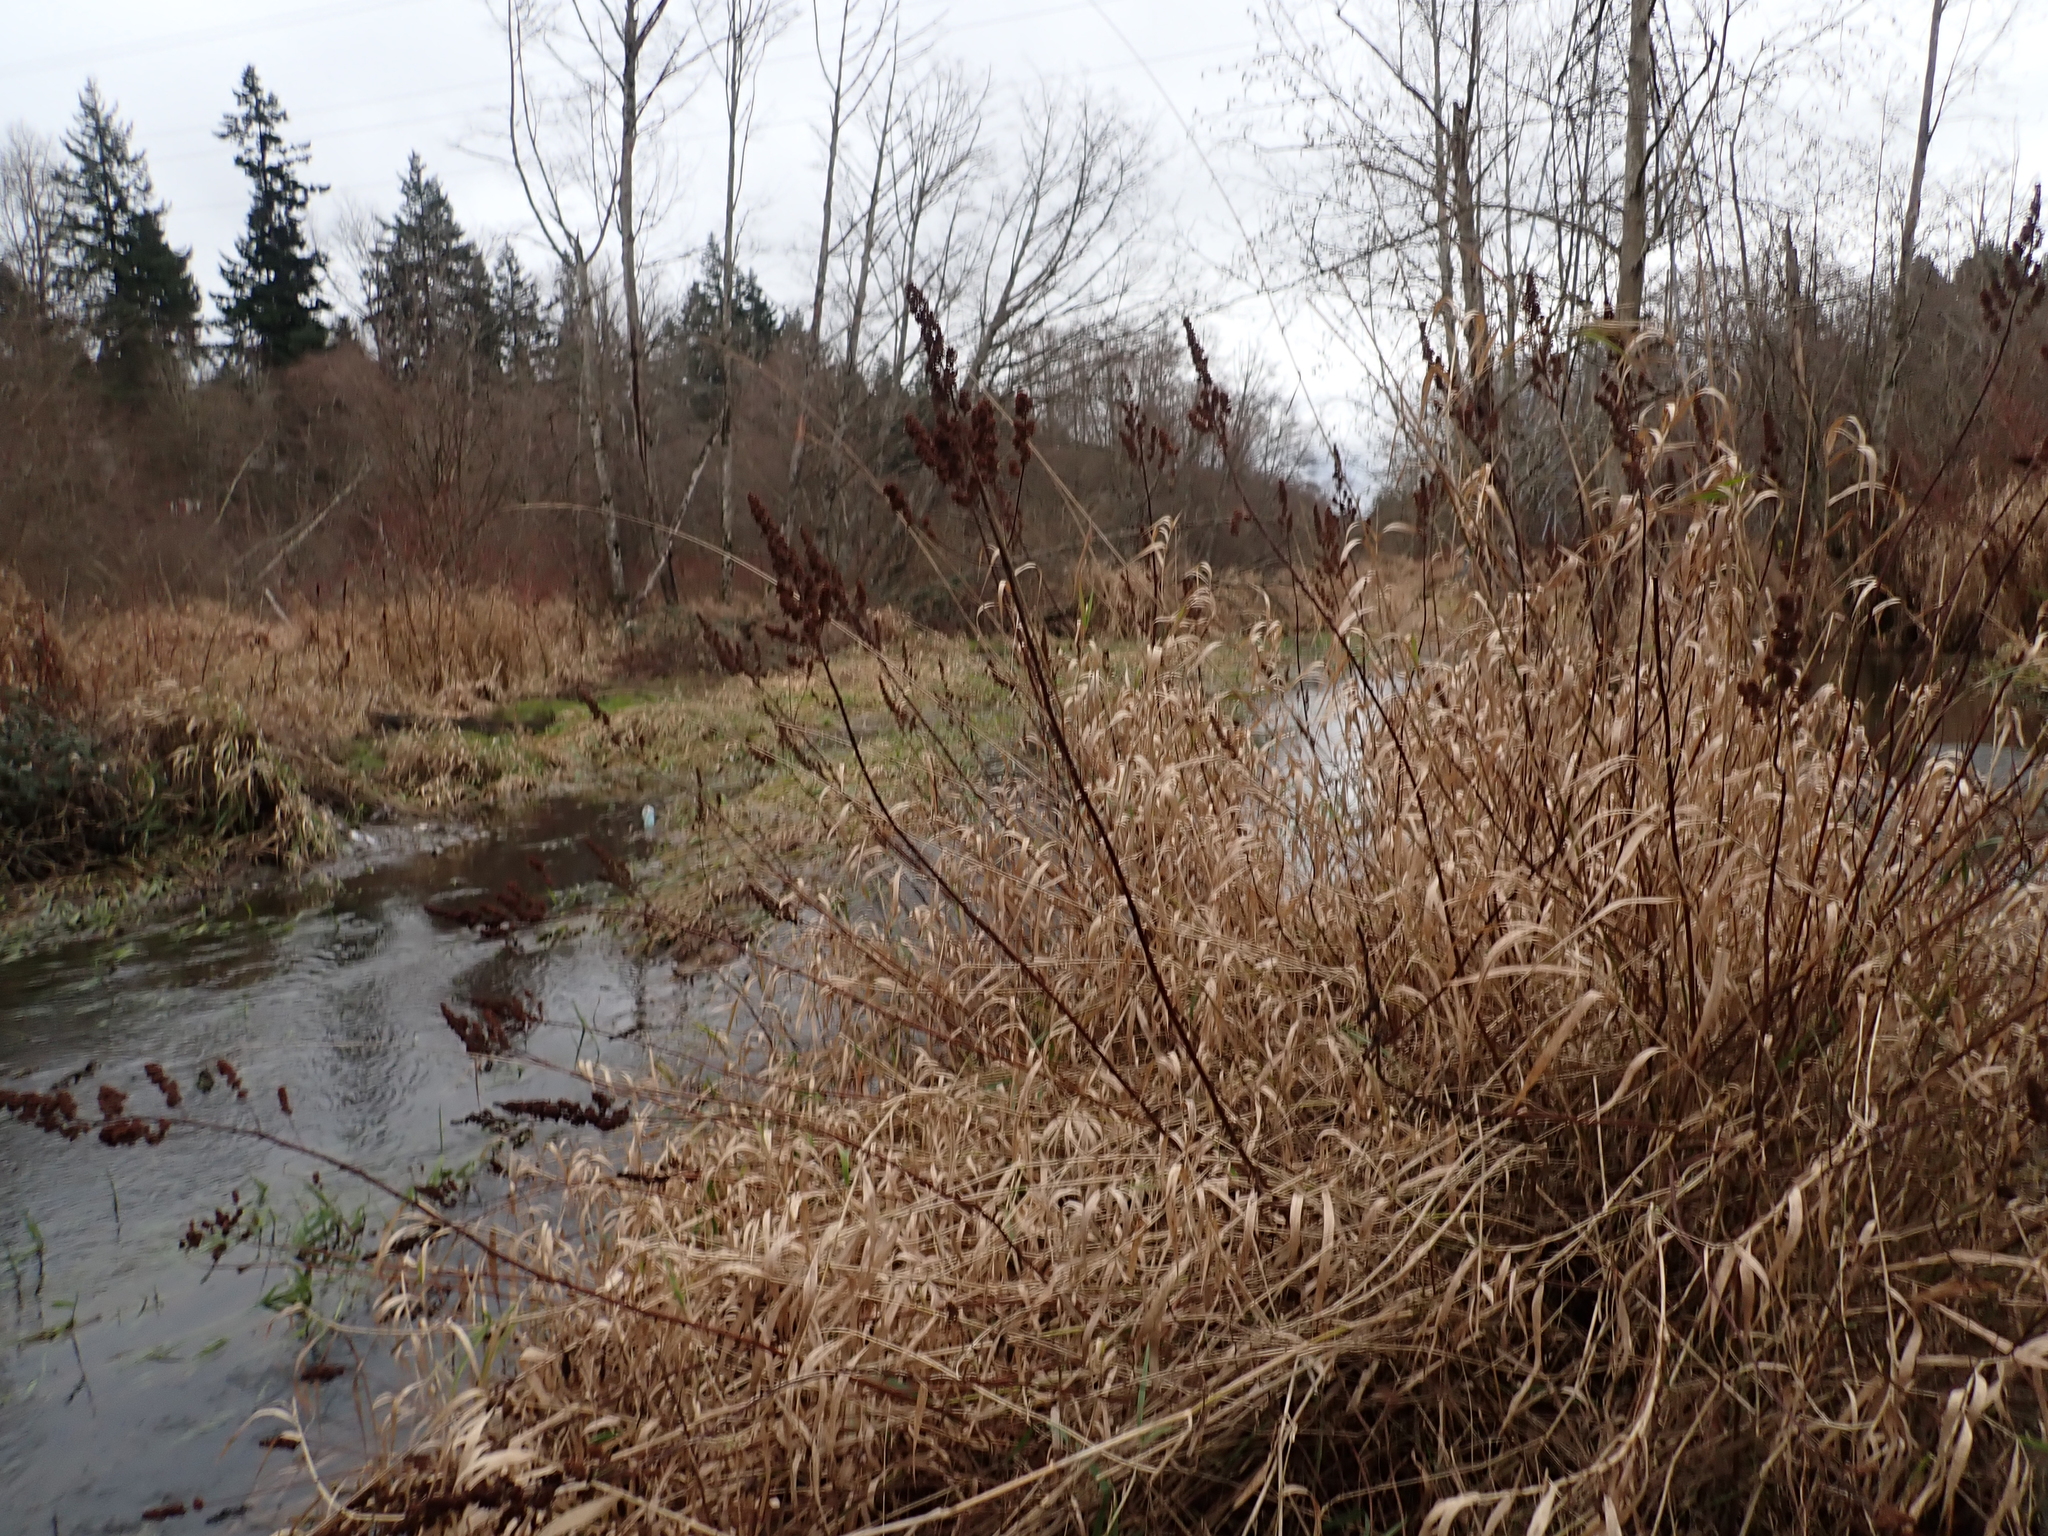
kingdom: Plantae
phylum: Tracheophyta
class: Magnoliopsida
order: Rosales
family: Rosaceae
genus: Spiraea
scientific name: Spiraea douglasii
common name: Steeplebush
